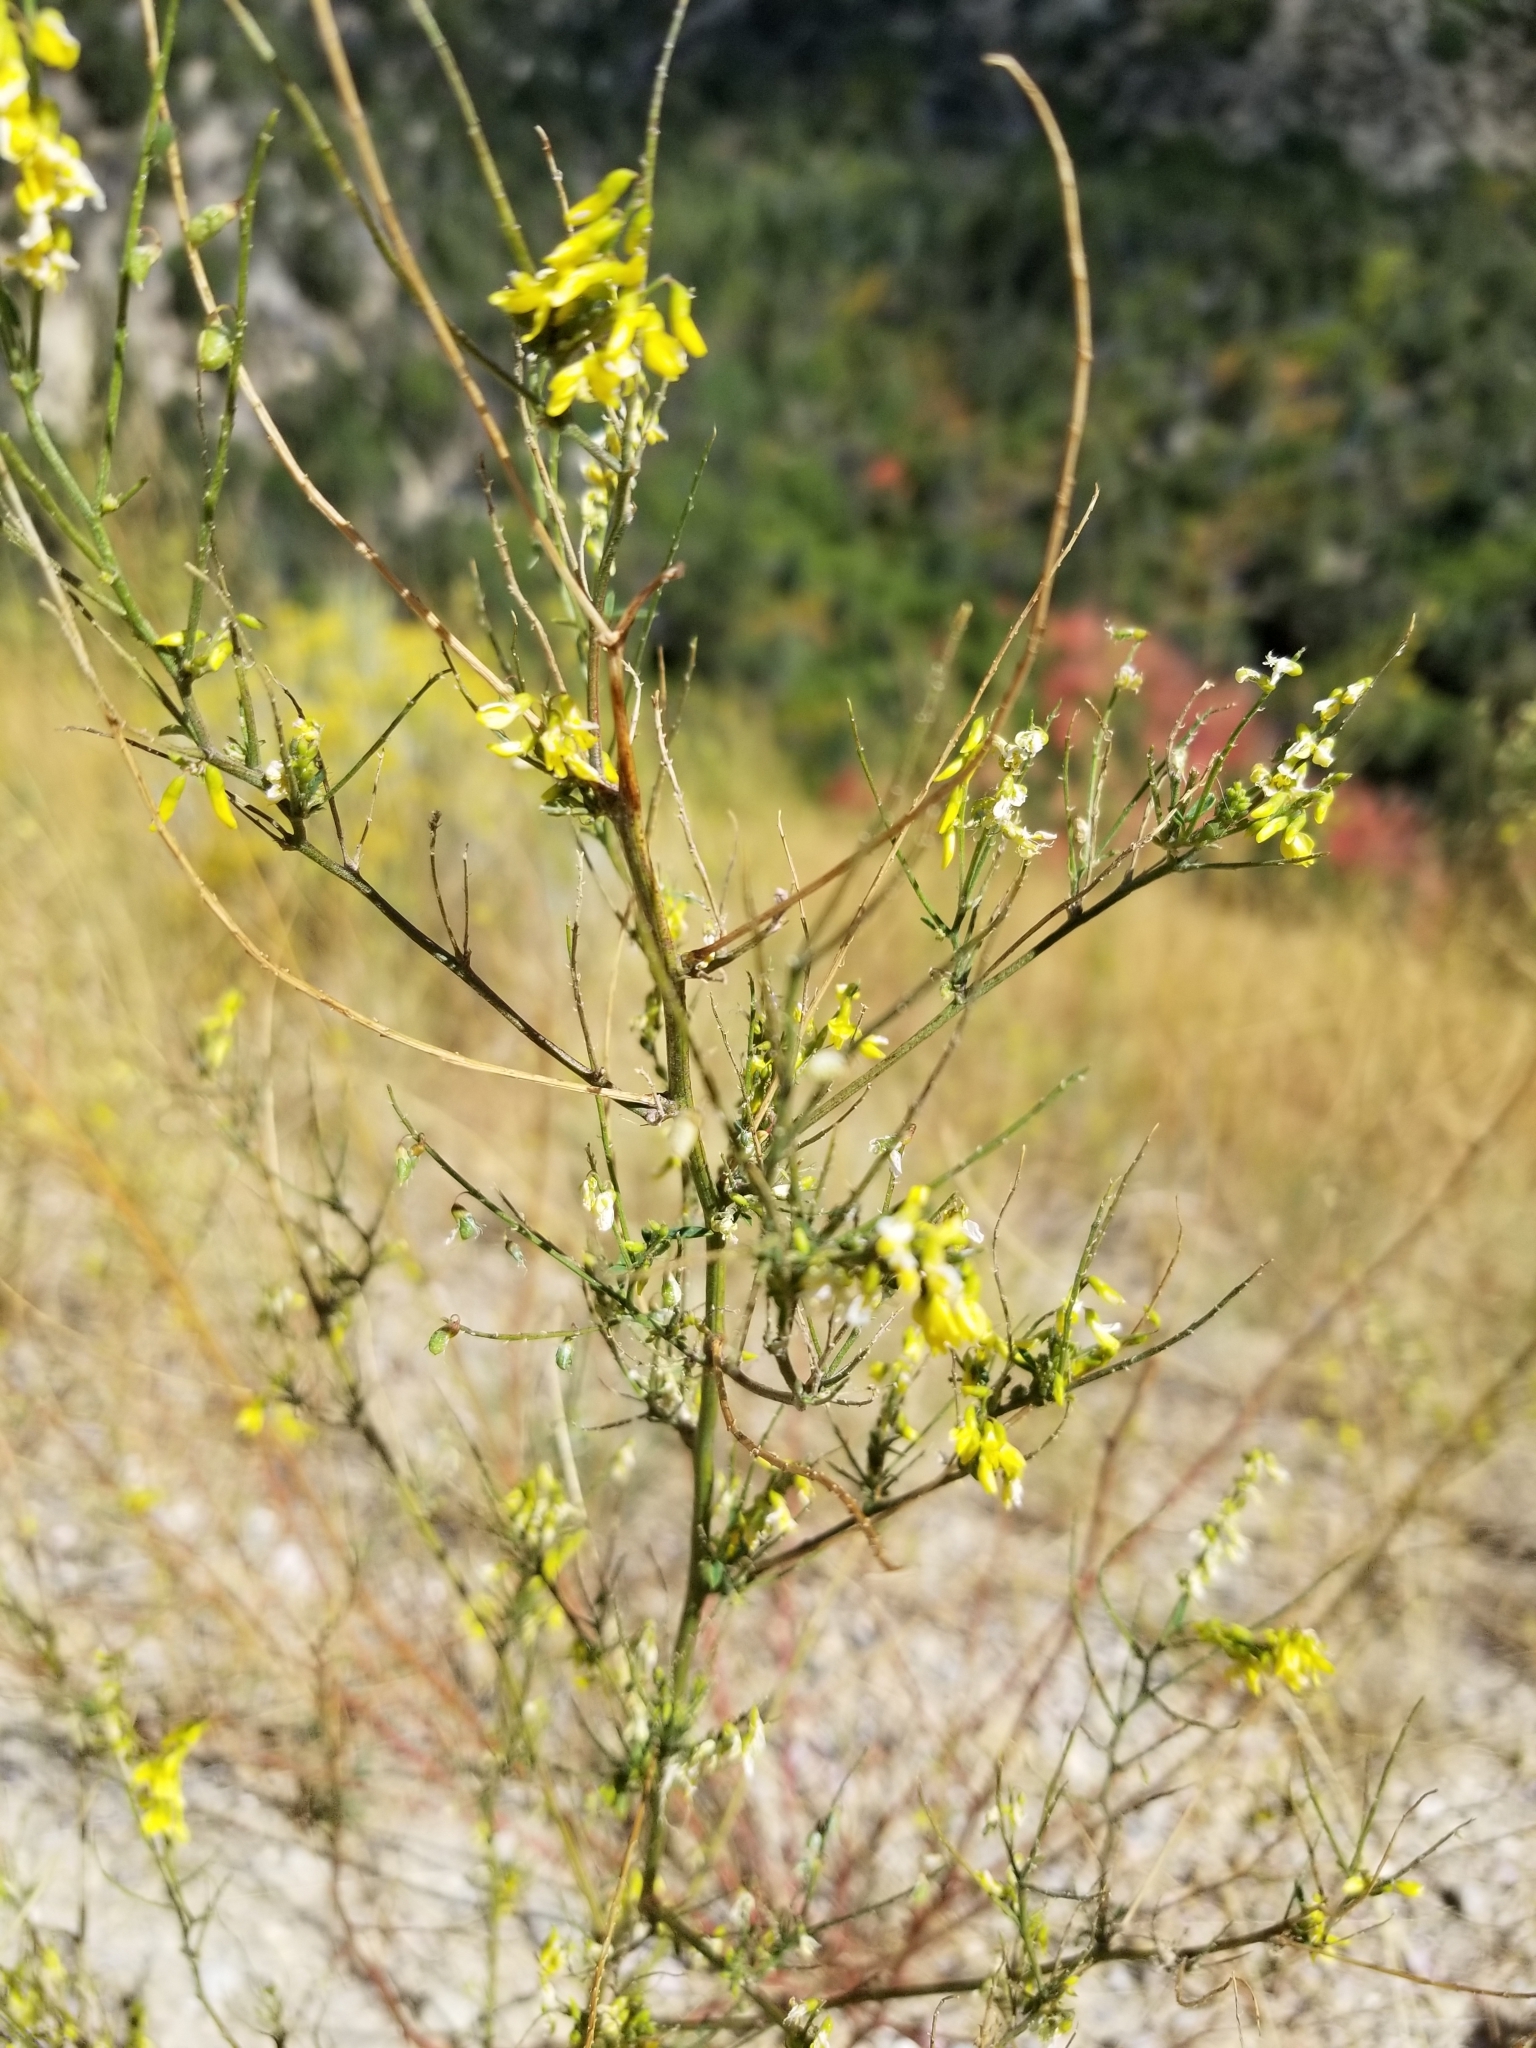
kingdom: Plantae
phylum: Tracheophyta
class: Magnoliopsida
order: Fabales
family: Fabaceae
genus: Melilotus
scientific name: Melilotus officinalis
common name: Sweetclover
